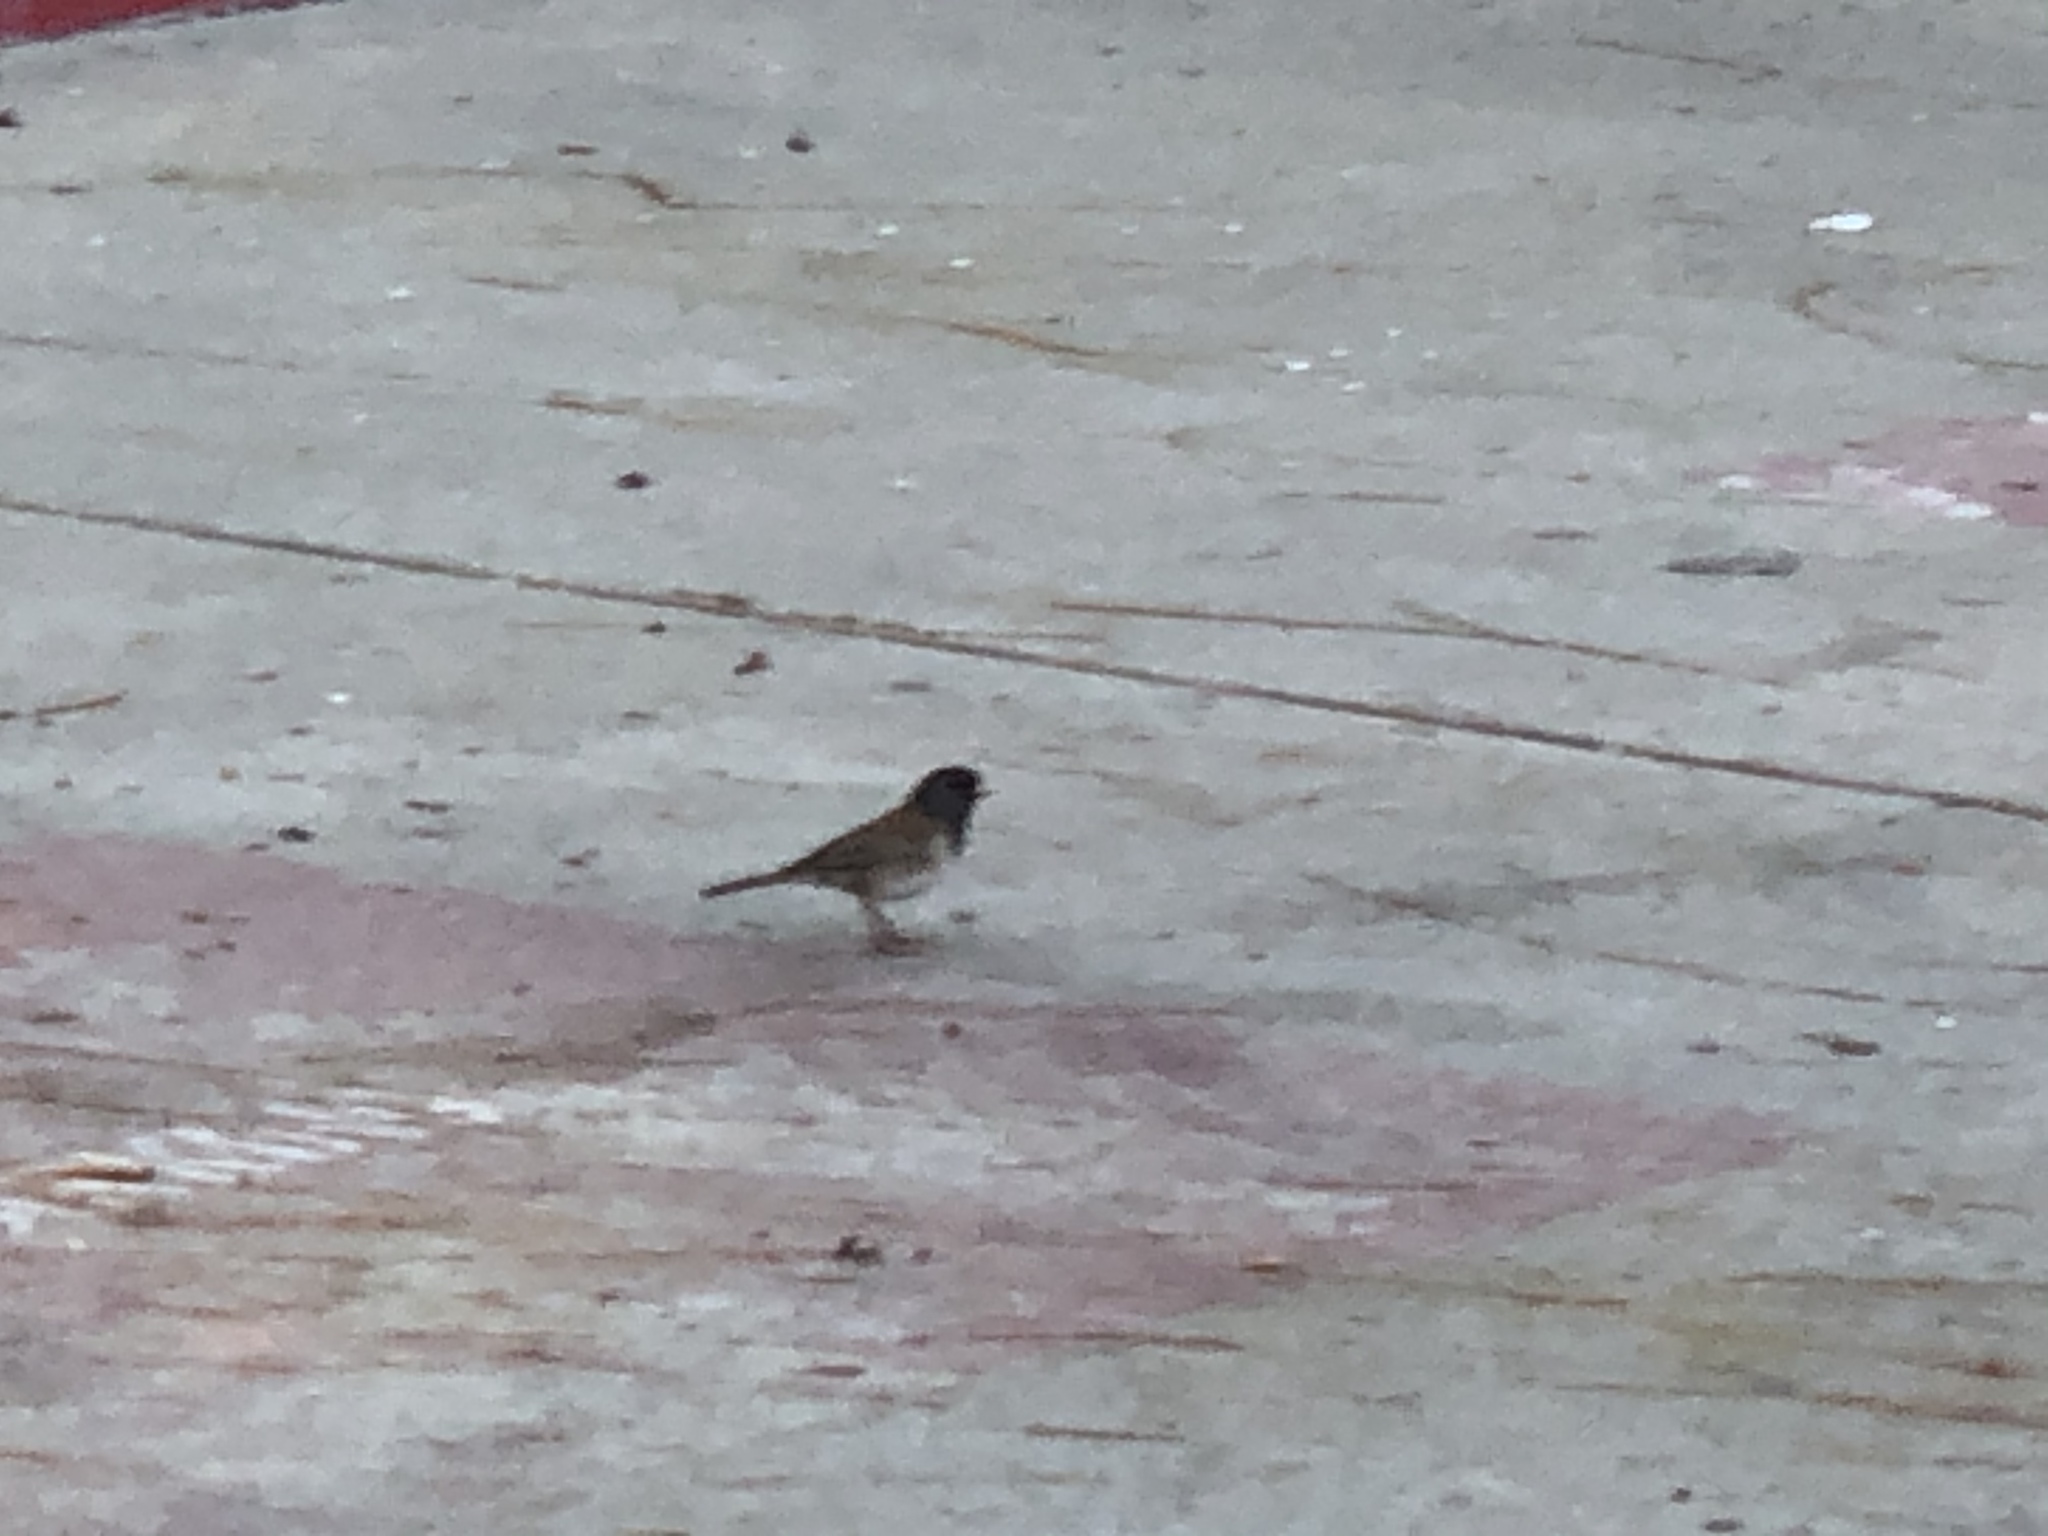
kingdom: Animalia
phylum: Chordata
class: Aves
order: Passeriformes
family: Passerellidae
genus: Junco
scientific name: Junco hyemalis
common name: Dark-eyed junco
